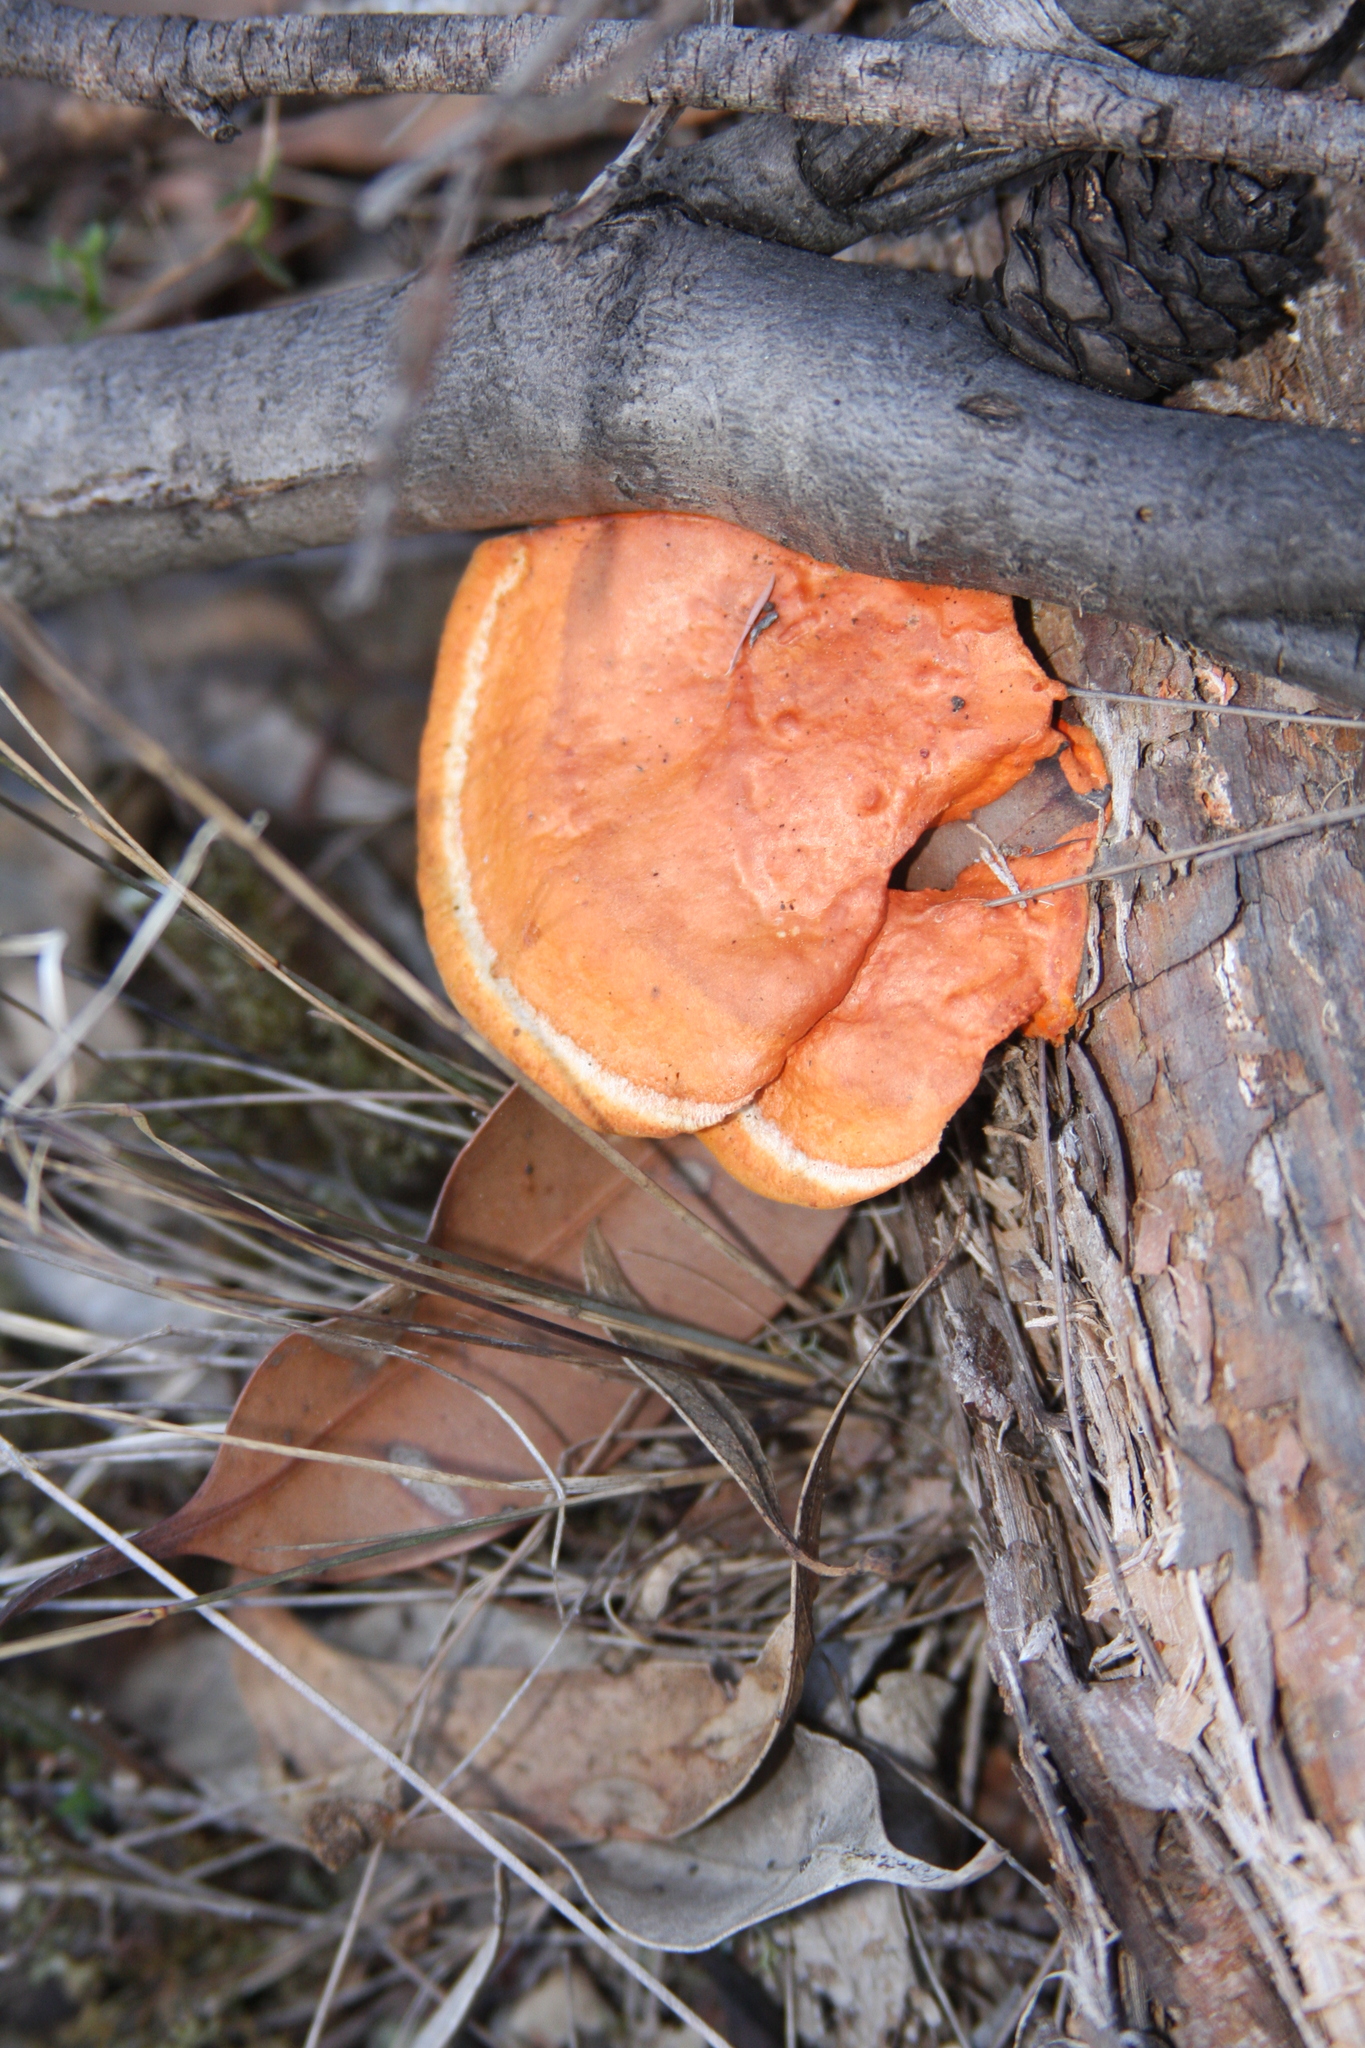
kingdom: Fungi
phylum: Basidiomycota
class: Agaricomycetes
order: Polyporales
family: Polyporaceae
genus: Trametes
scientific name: Trametes coccinea
